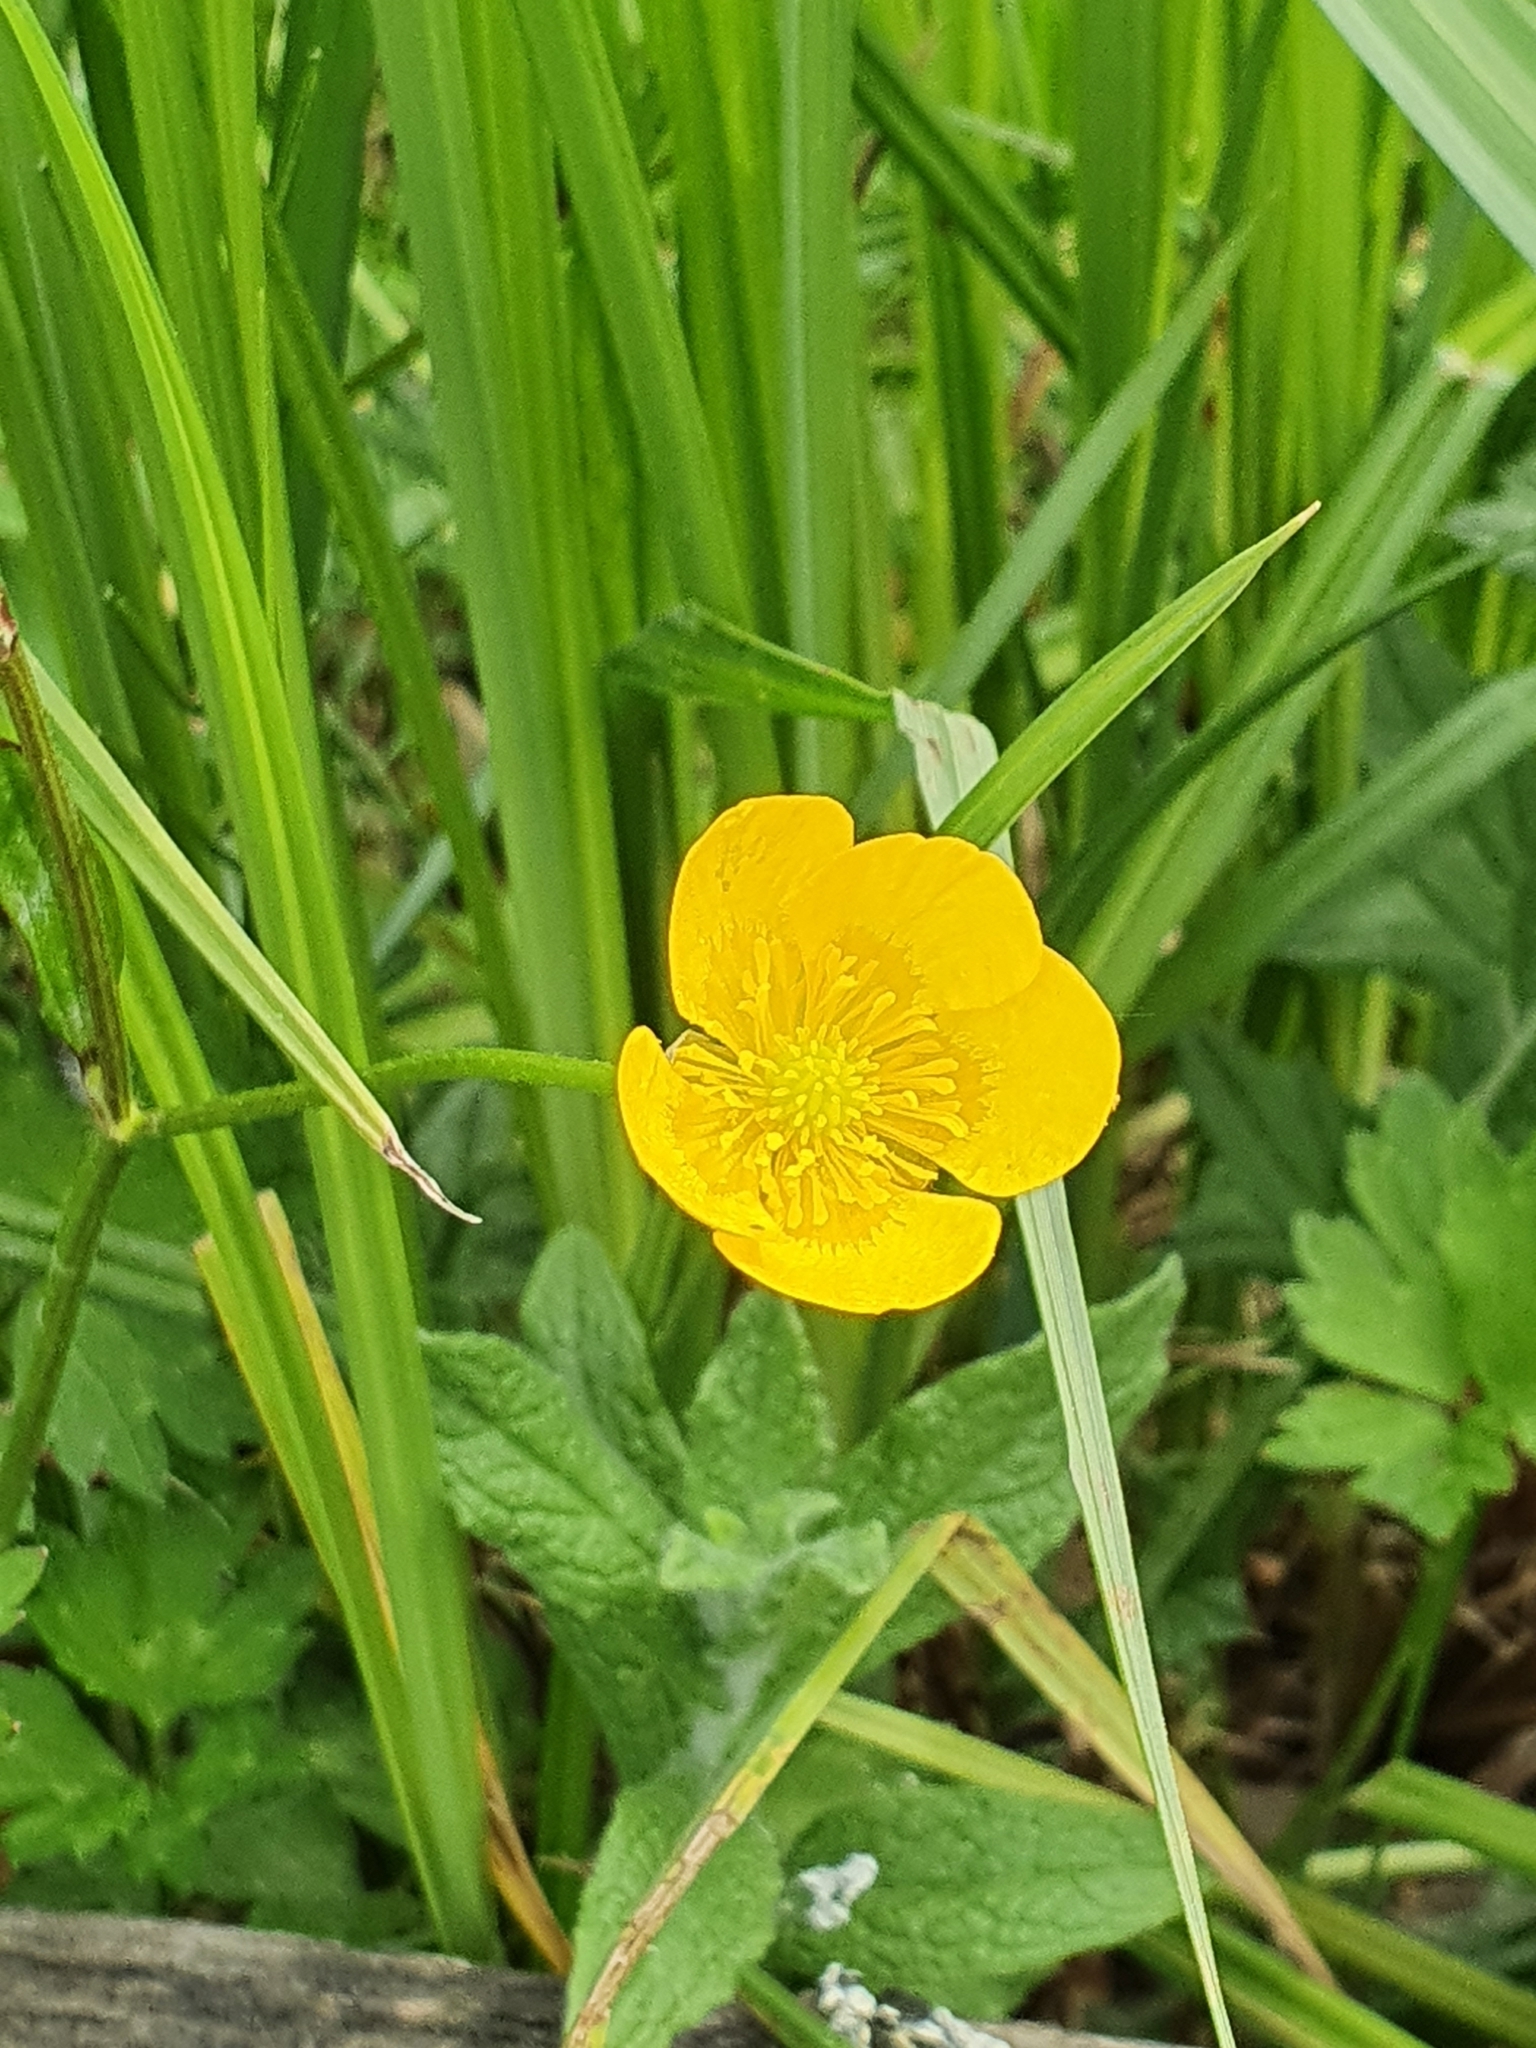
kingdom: Plantae
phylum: Tracheophyta
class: Magnoliopsida
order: Ranunculales
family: Ranunculaceae
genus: Ranunculus
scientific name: Ranunculus acris
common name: Meadow buttercup
